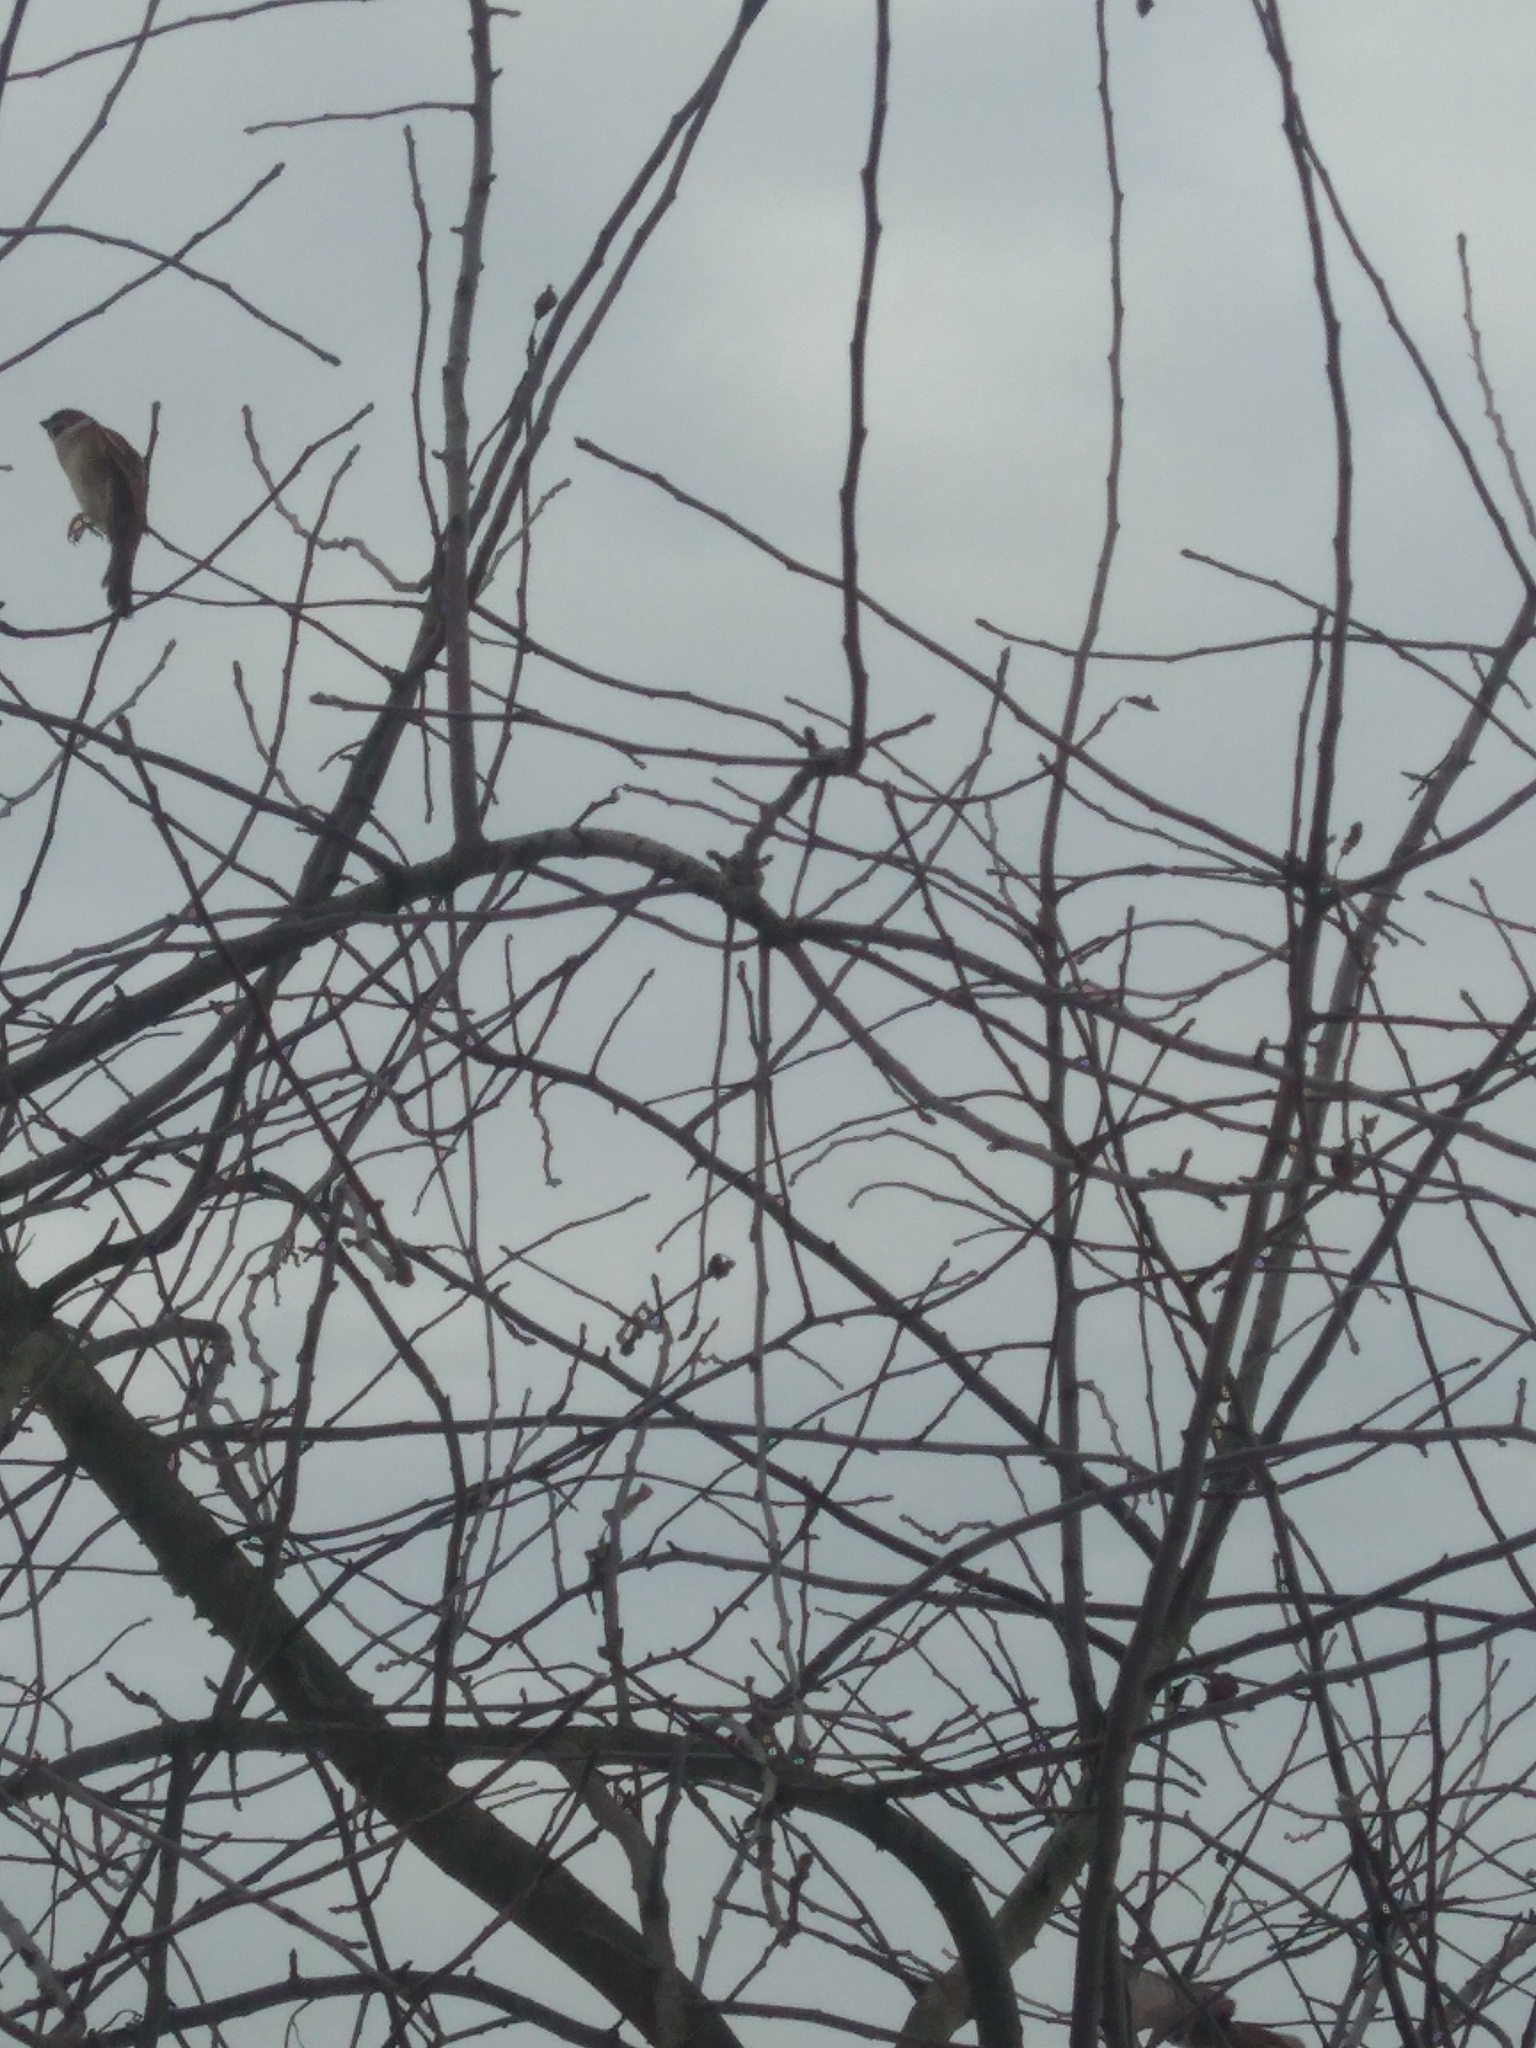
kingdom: Animalia
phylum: Chordata
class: Aves
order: Passeriformes
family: Passeridae
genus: Passer
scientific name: Passer montanus
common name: Eurasian tree sparrow
